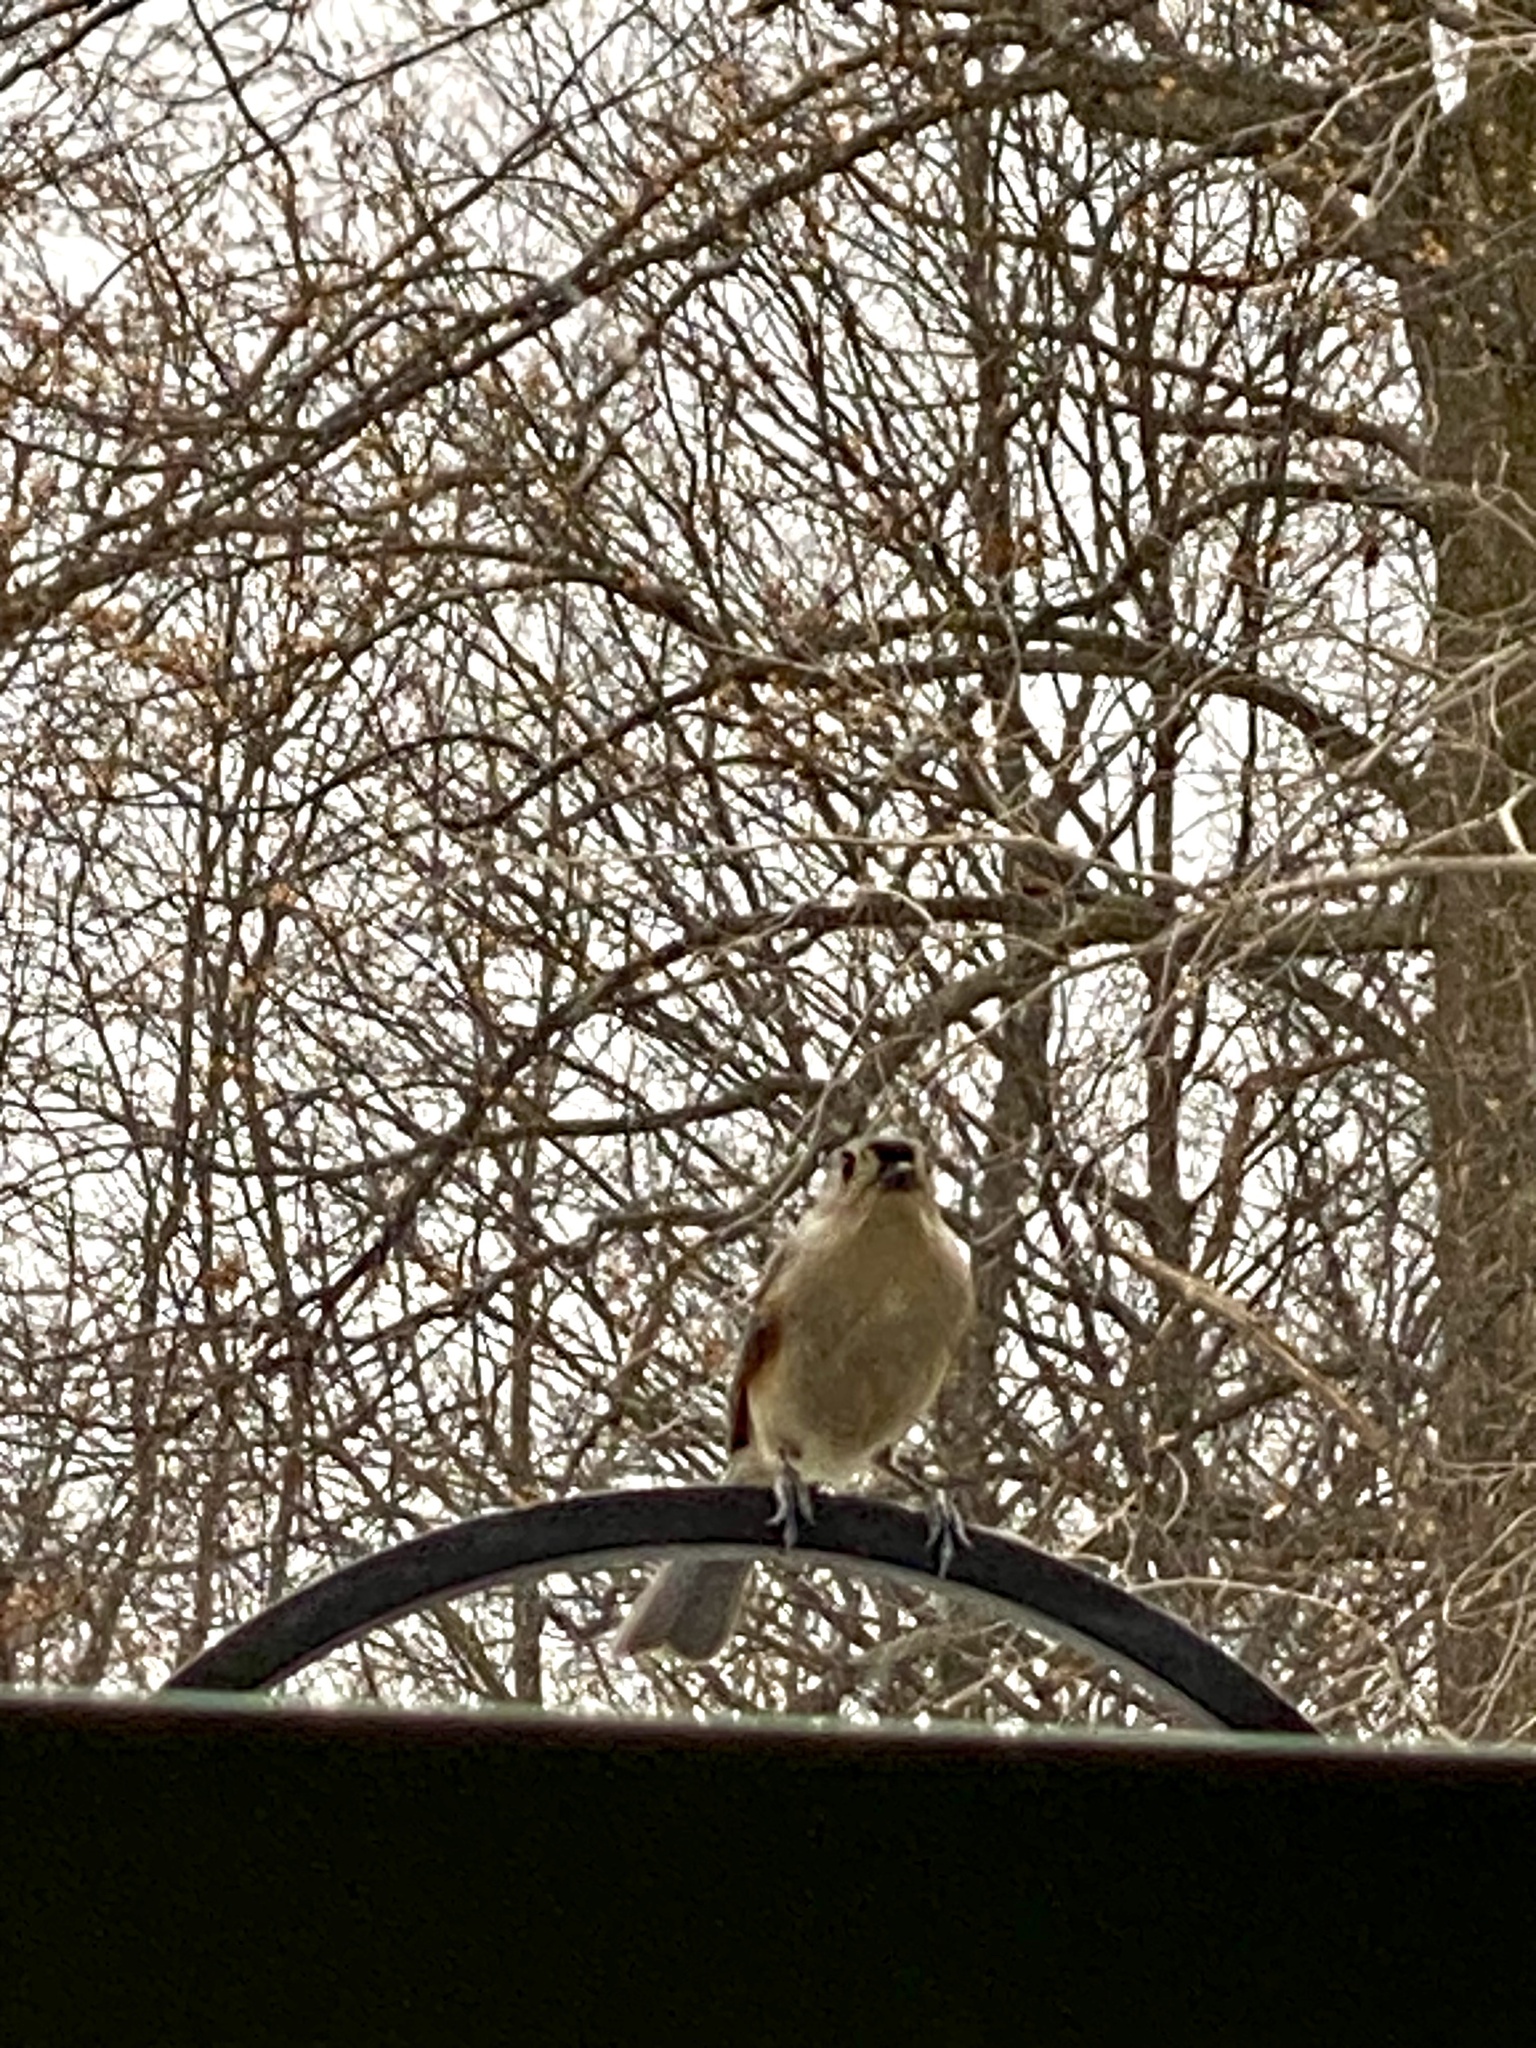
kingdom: Animalia
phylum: Chordata
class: Aves
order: Passeriformes
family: Paridae
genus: Baeolophus
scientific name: Baeolophus bicolor
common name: Tufted titmouse
